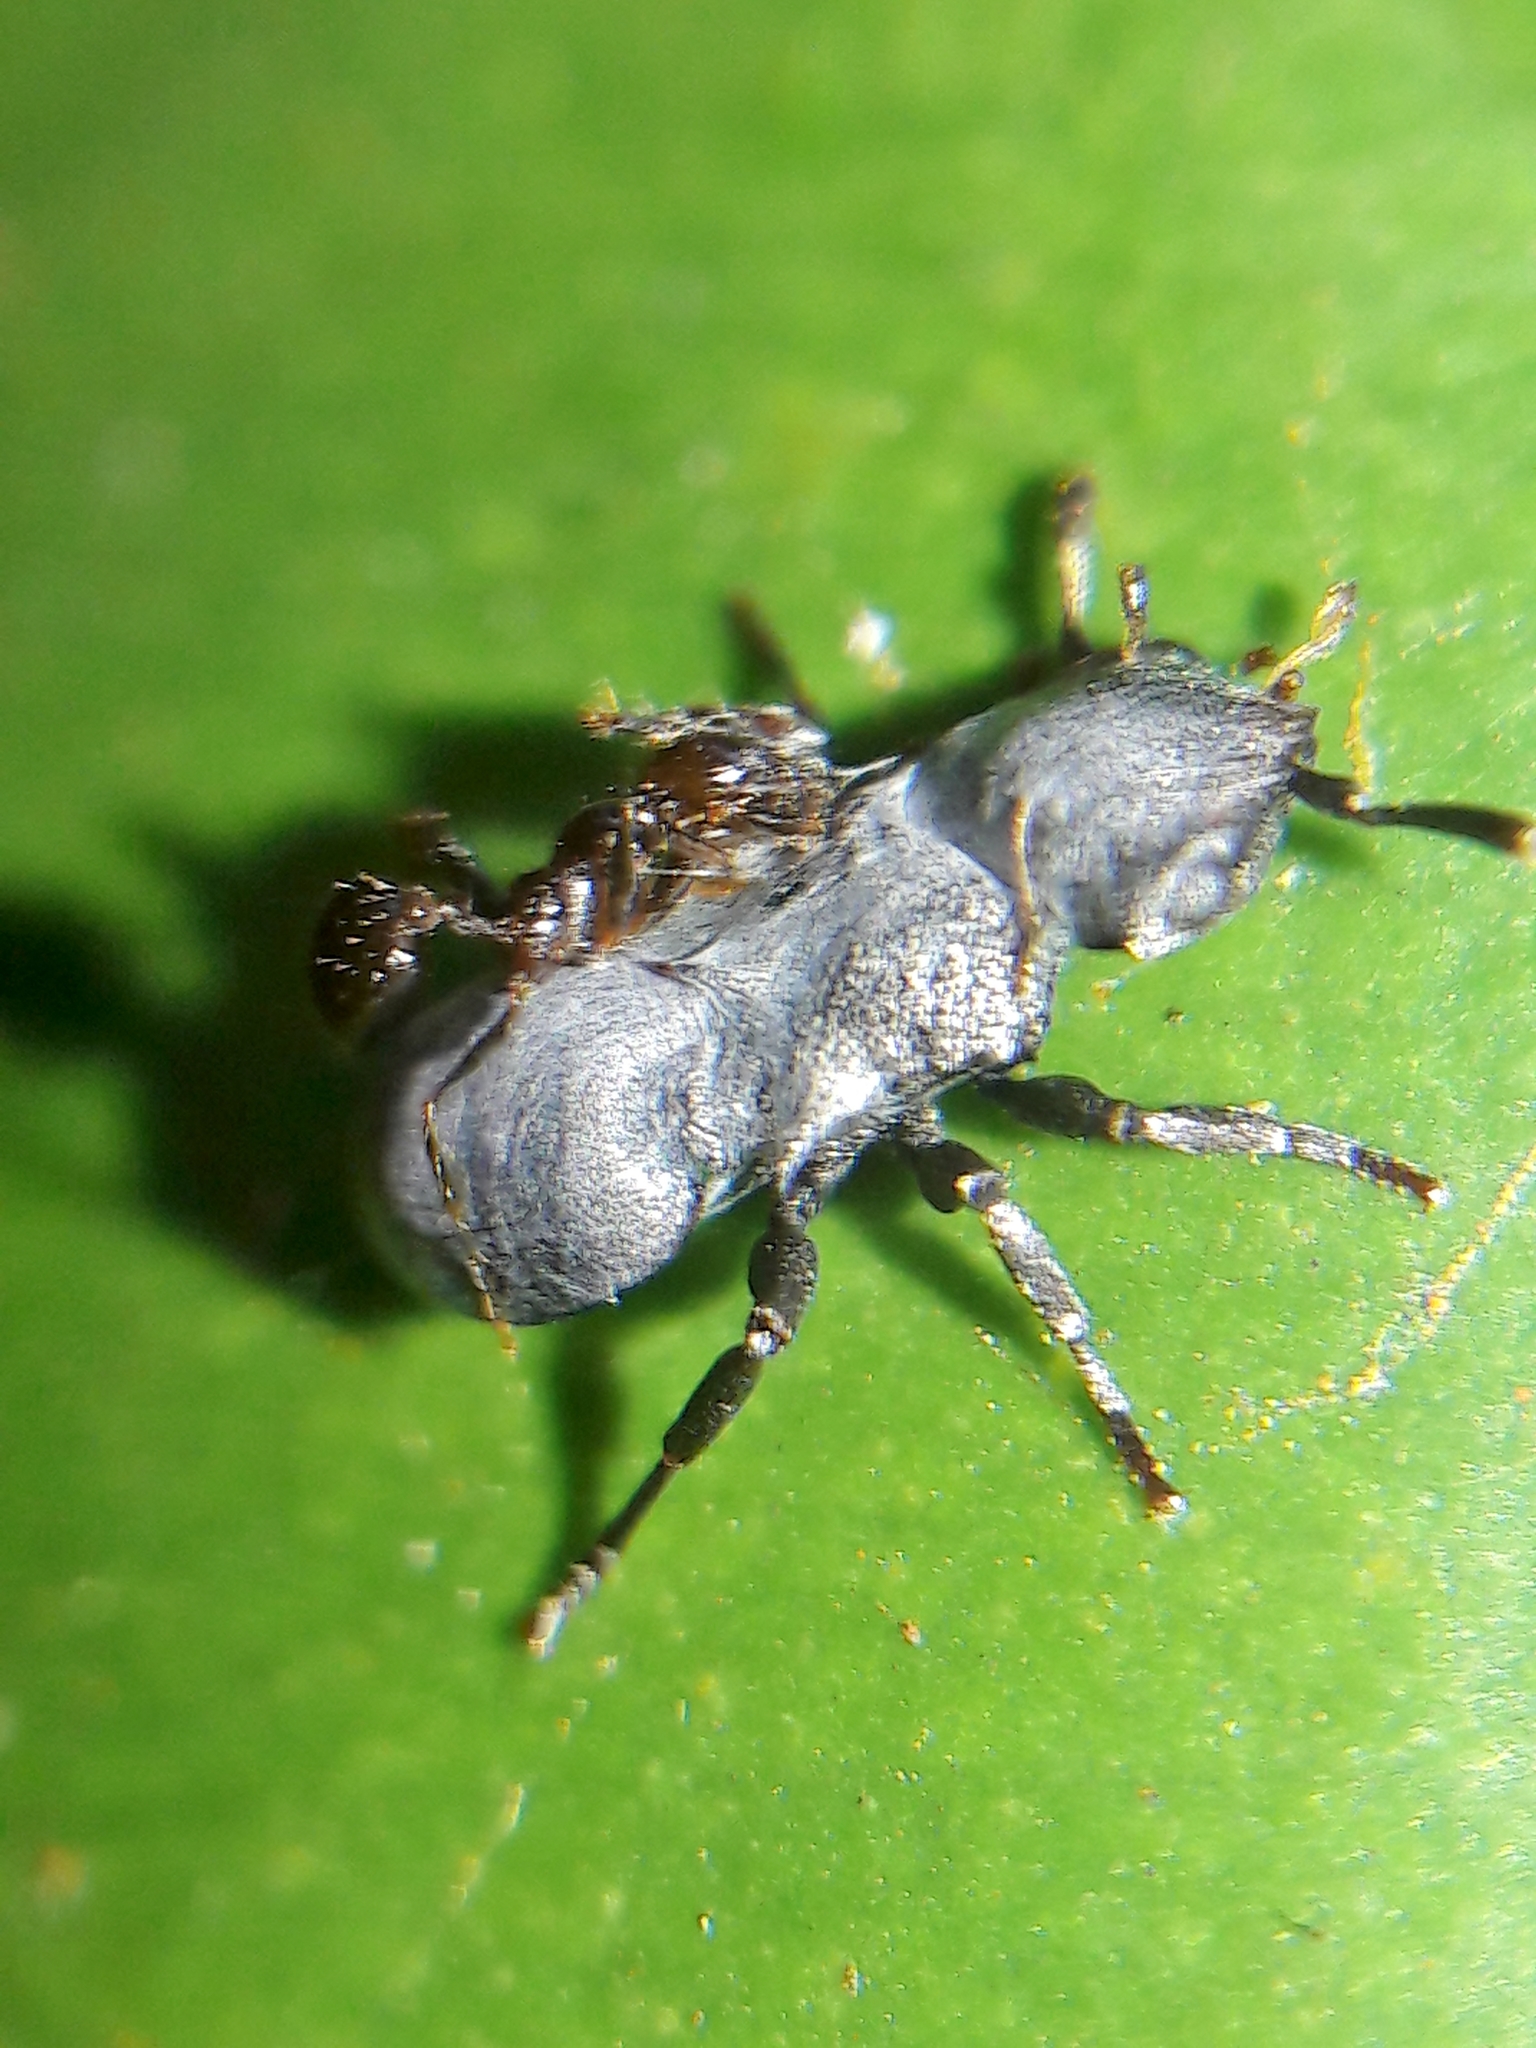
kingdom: Animalia
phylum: Arthropoda
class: Insecta
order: Hymenoptera
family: Formicidae
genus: Cephalotes
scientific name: Cephalotes
